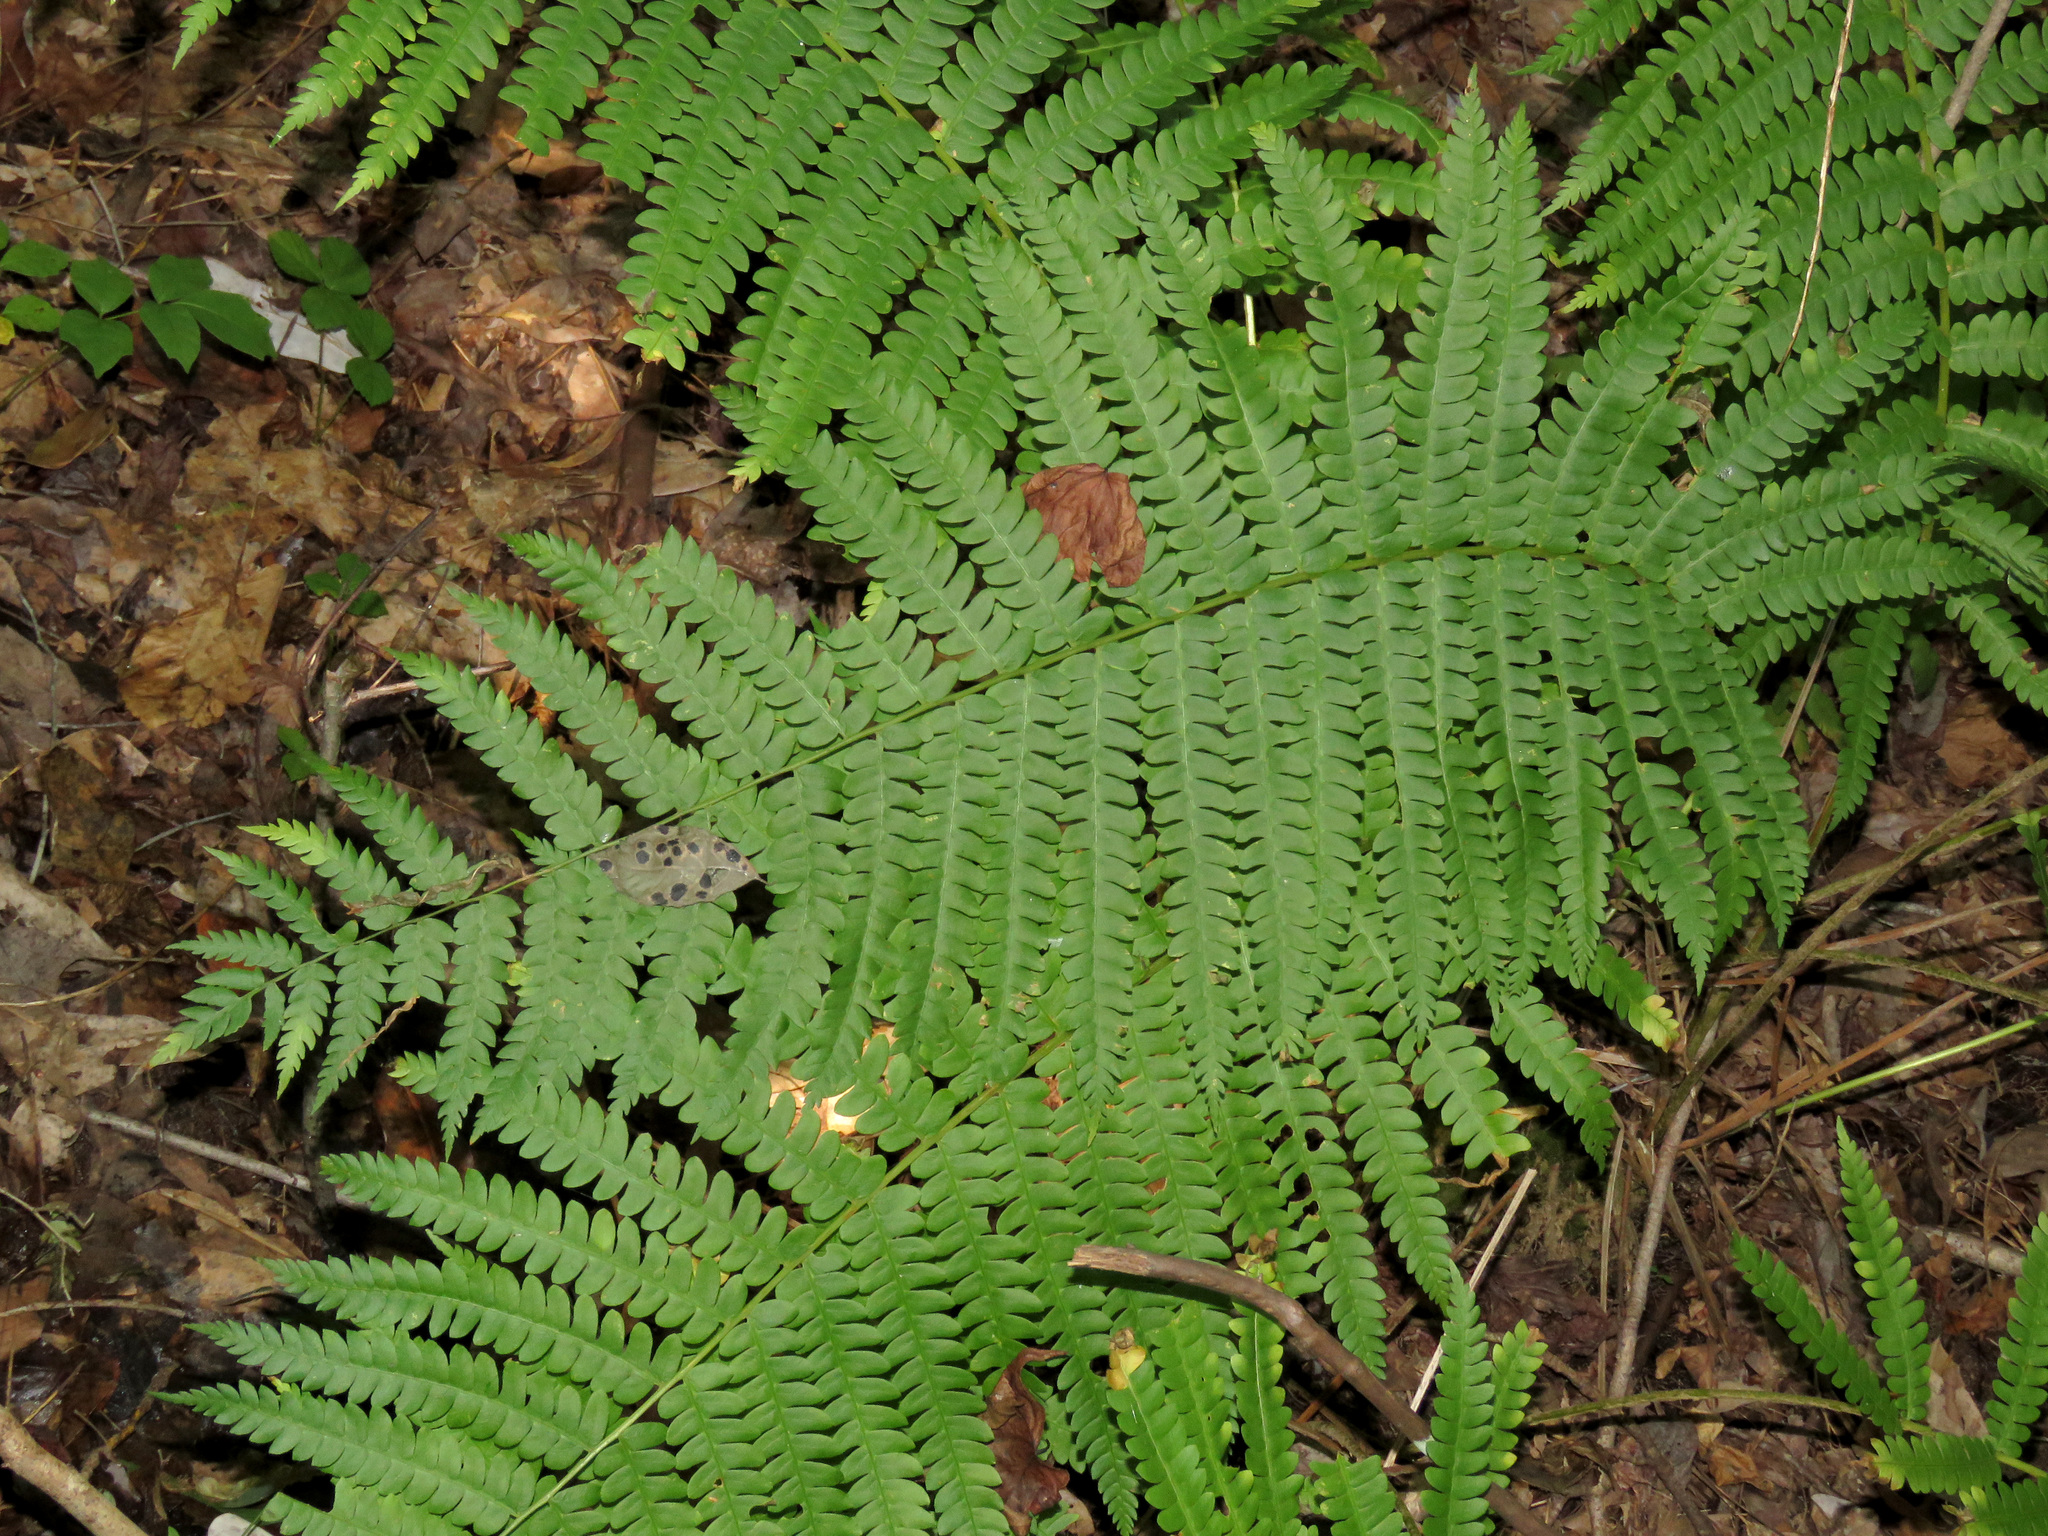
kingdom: Plantae
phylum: Tracheophyta
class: Polypodiopsida
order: Osmundales
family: Osmundaceae
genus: Osmundastrum
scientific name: Osmundastrum cinnamomeum
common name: Cinnamon fern
